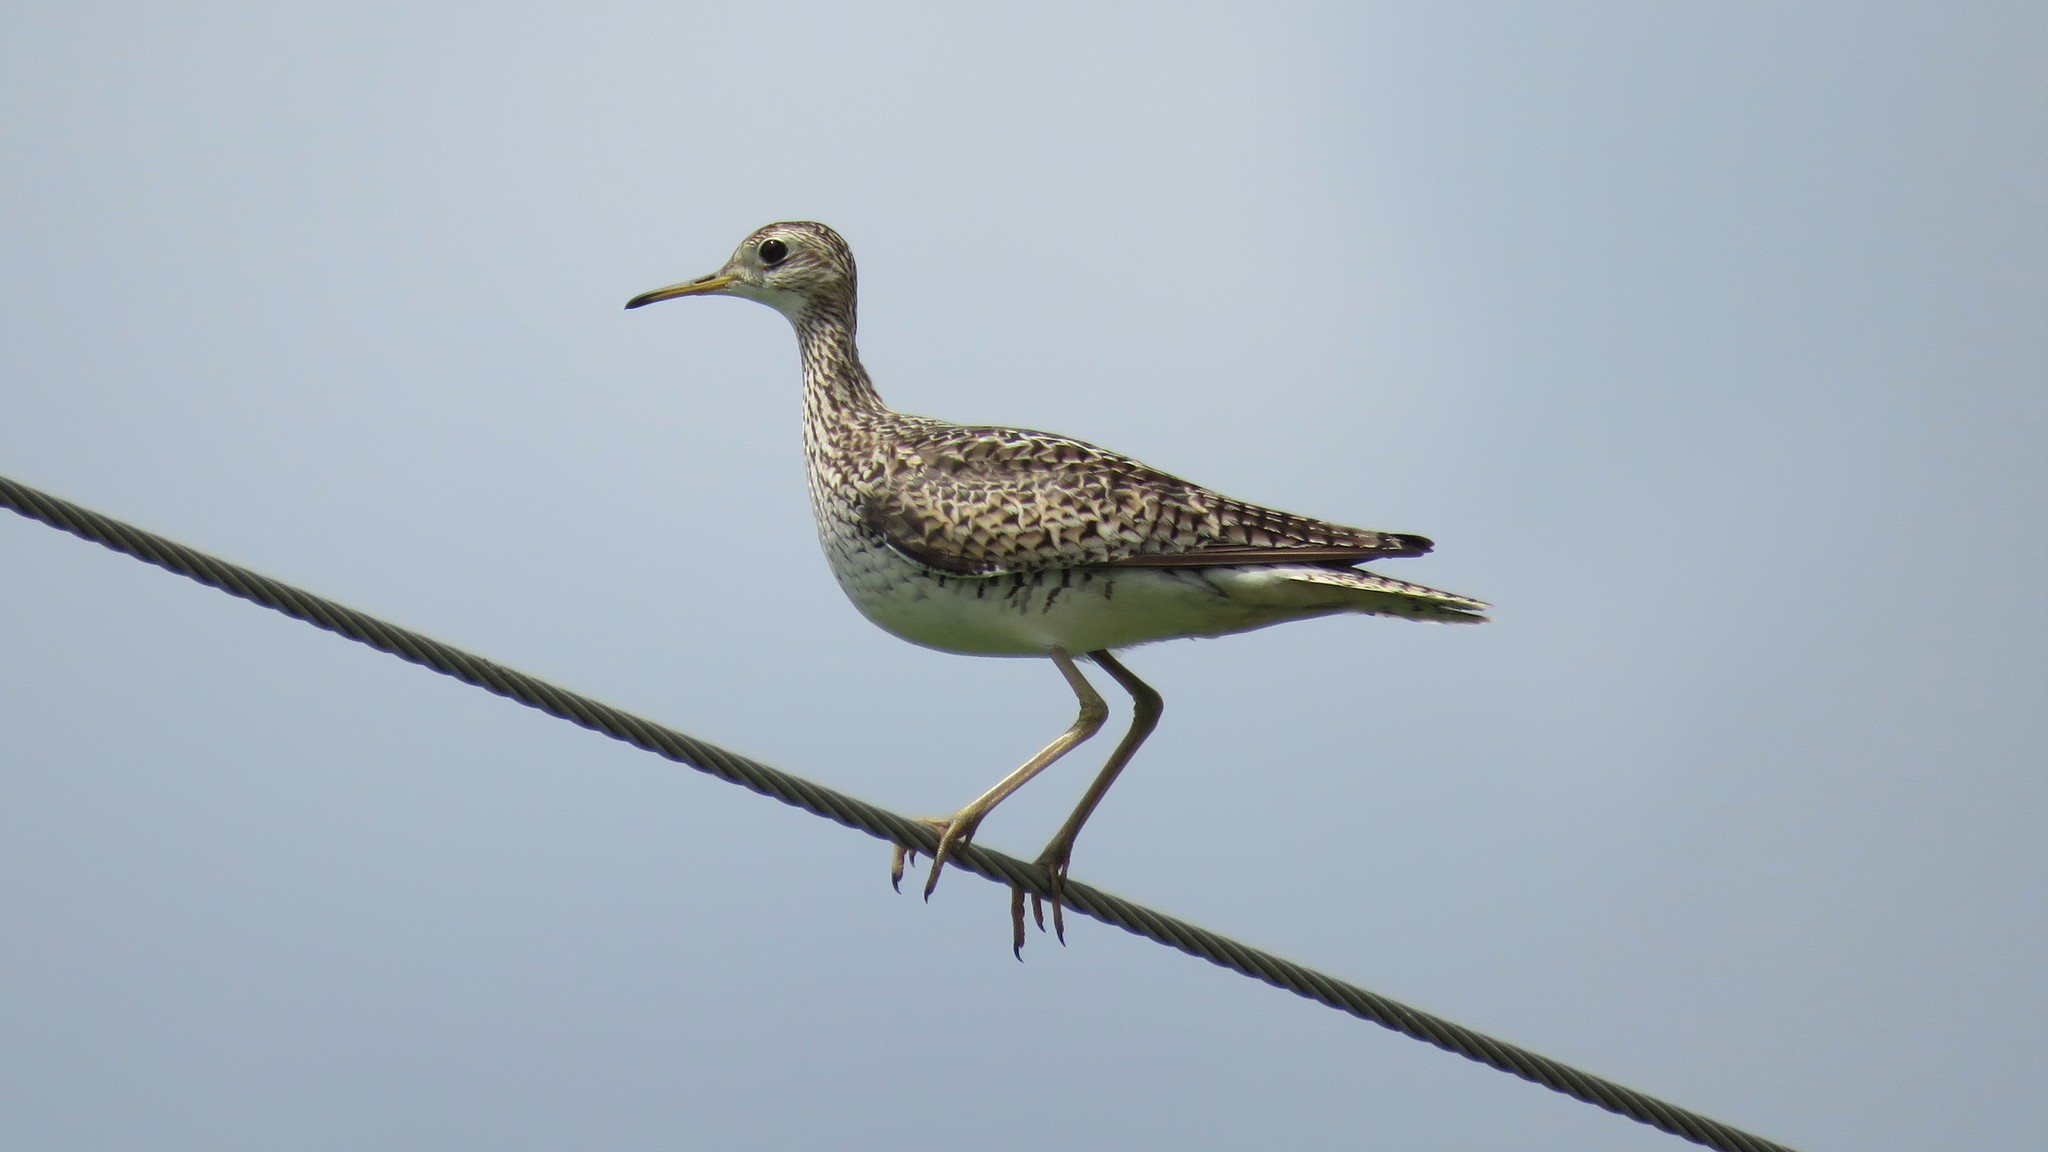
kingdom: Animalia
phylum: Chordata
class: Aves
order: Charadriiformes
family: Scolopacidae
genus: Bartramia
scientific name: Bartramia longicauda
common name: Upland sandpiper
